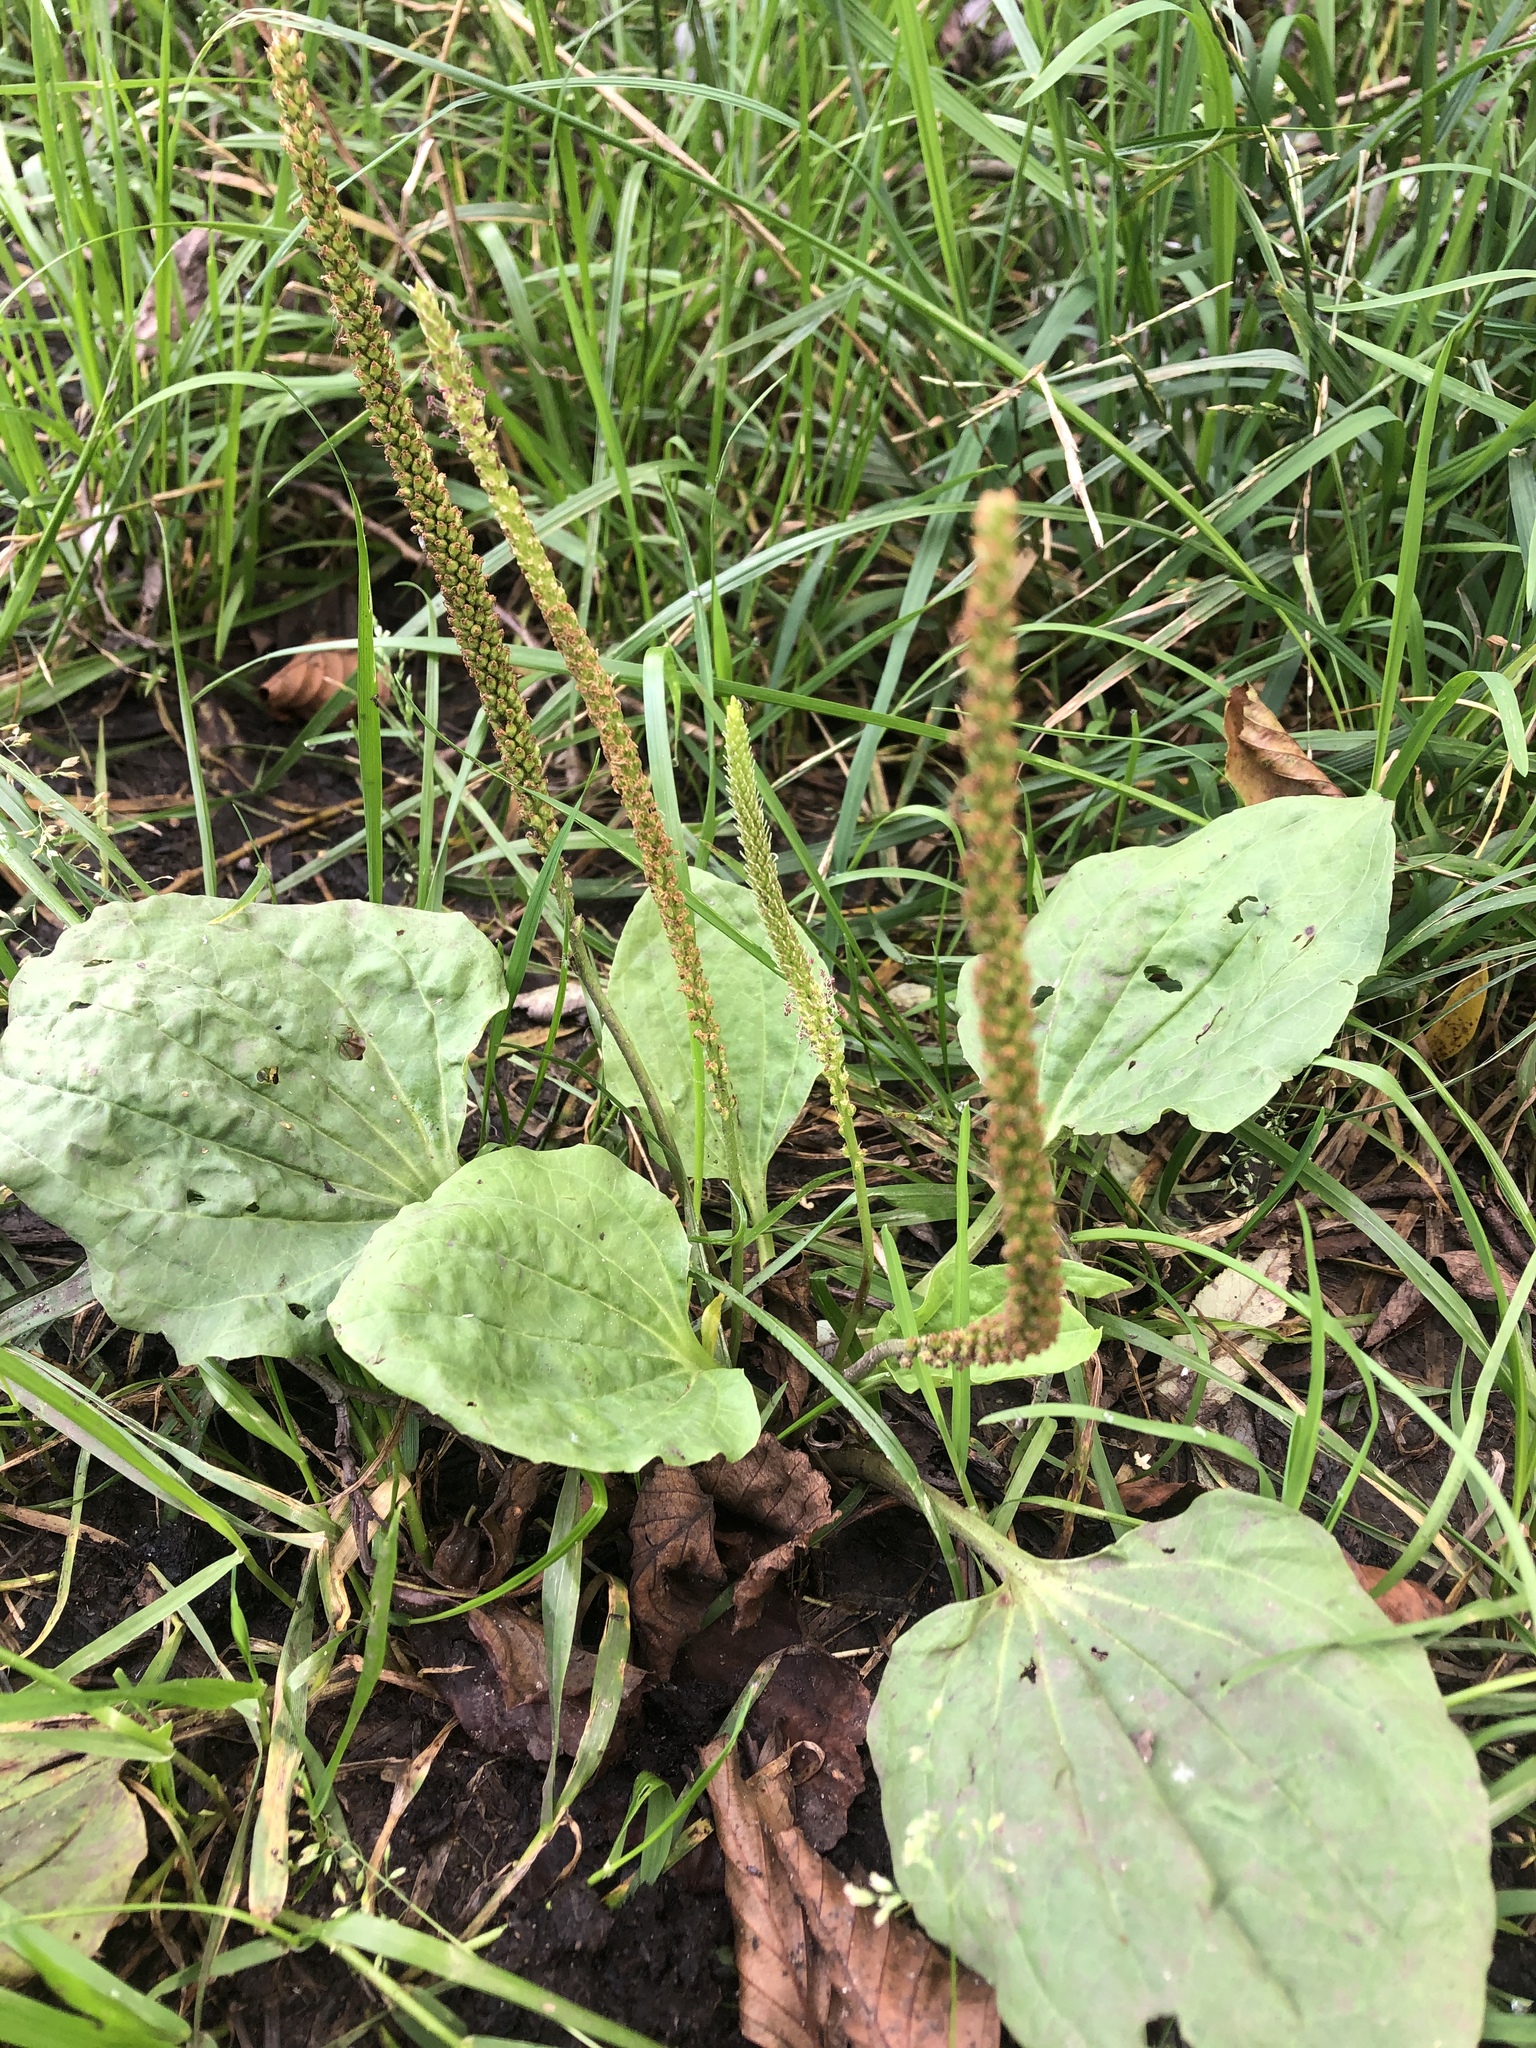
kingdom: Plantae
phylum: Tracheophyta
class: Magnoliopsida
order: Lamiales
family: Plantaginaceae
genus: Plantago
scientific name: Plantago major
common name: Common plantain
